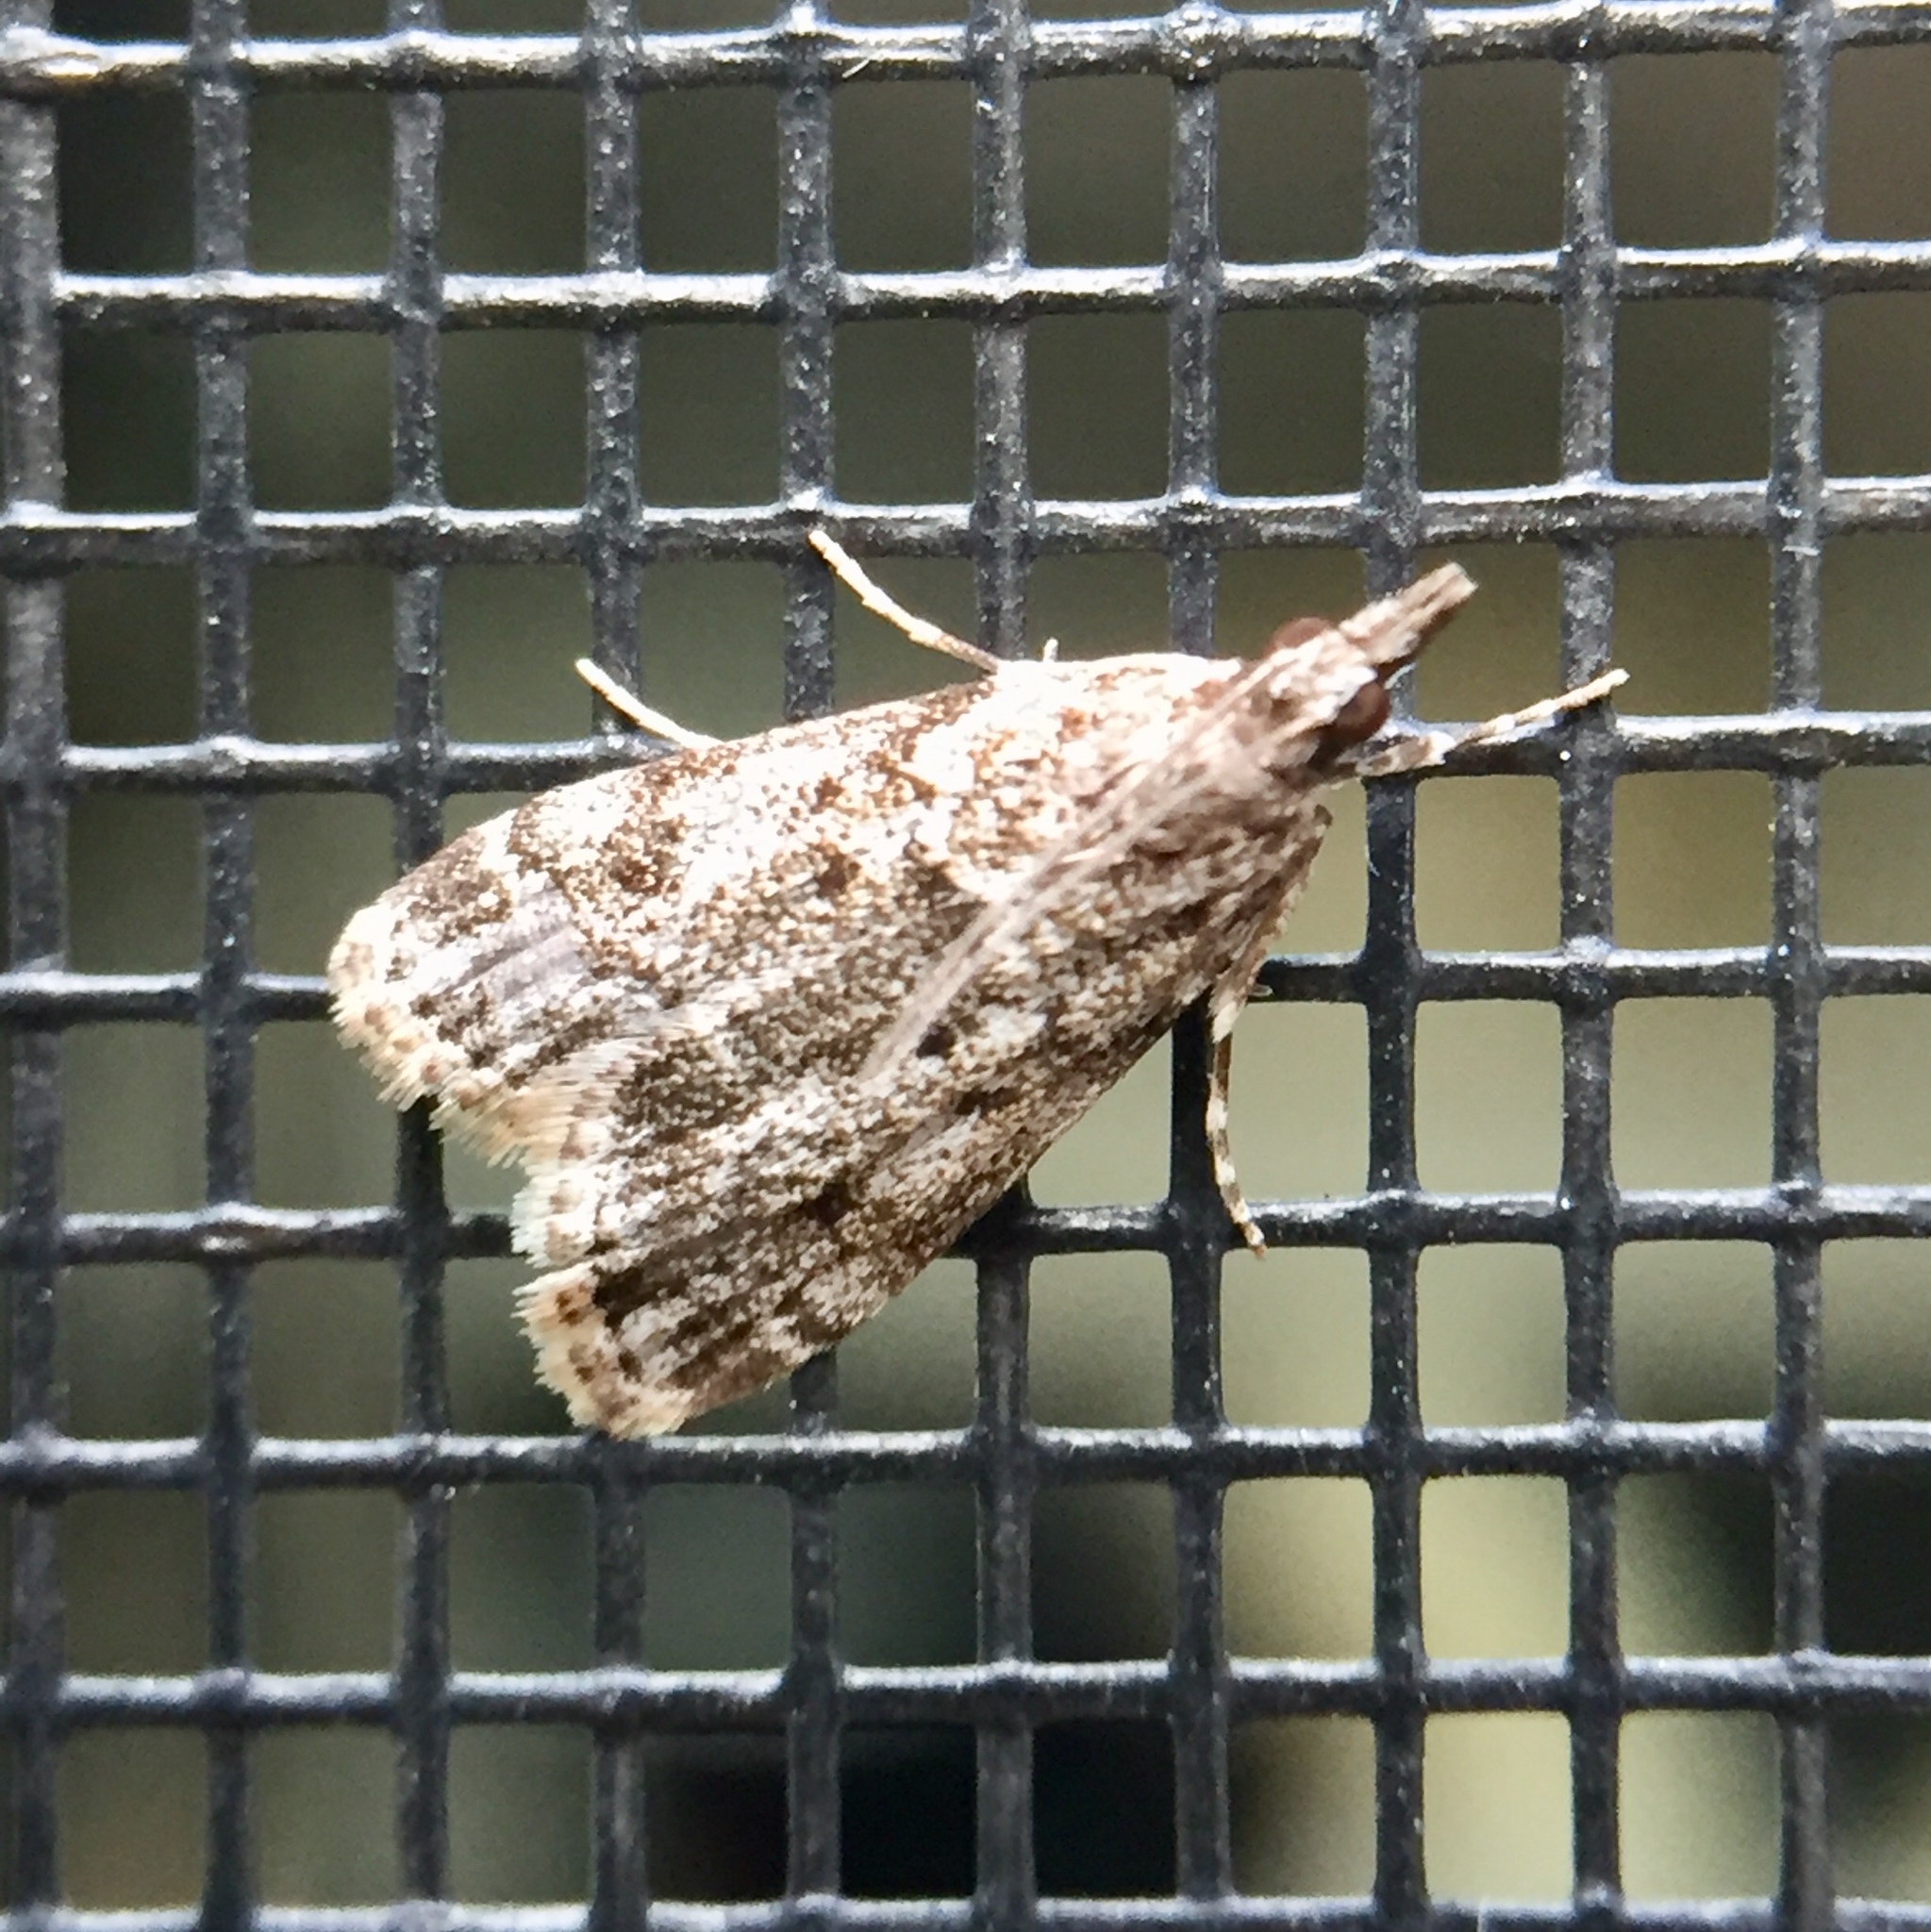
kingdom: Animalia
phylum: Arthropoda
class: Insecta
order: Lepidoptera
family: Crambidae
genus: Eudonia
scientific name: Eudonia heterosalis
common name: Mcdunnough's eudonia
